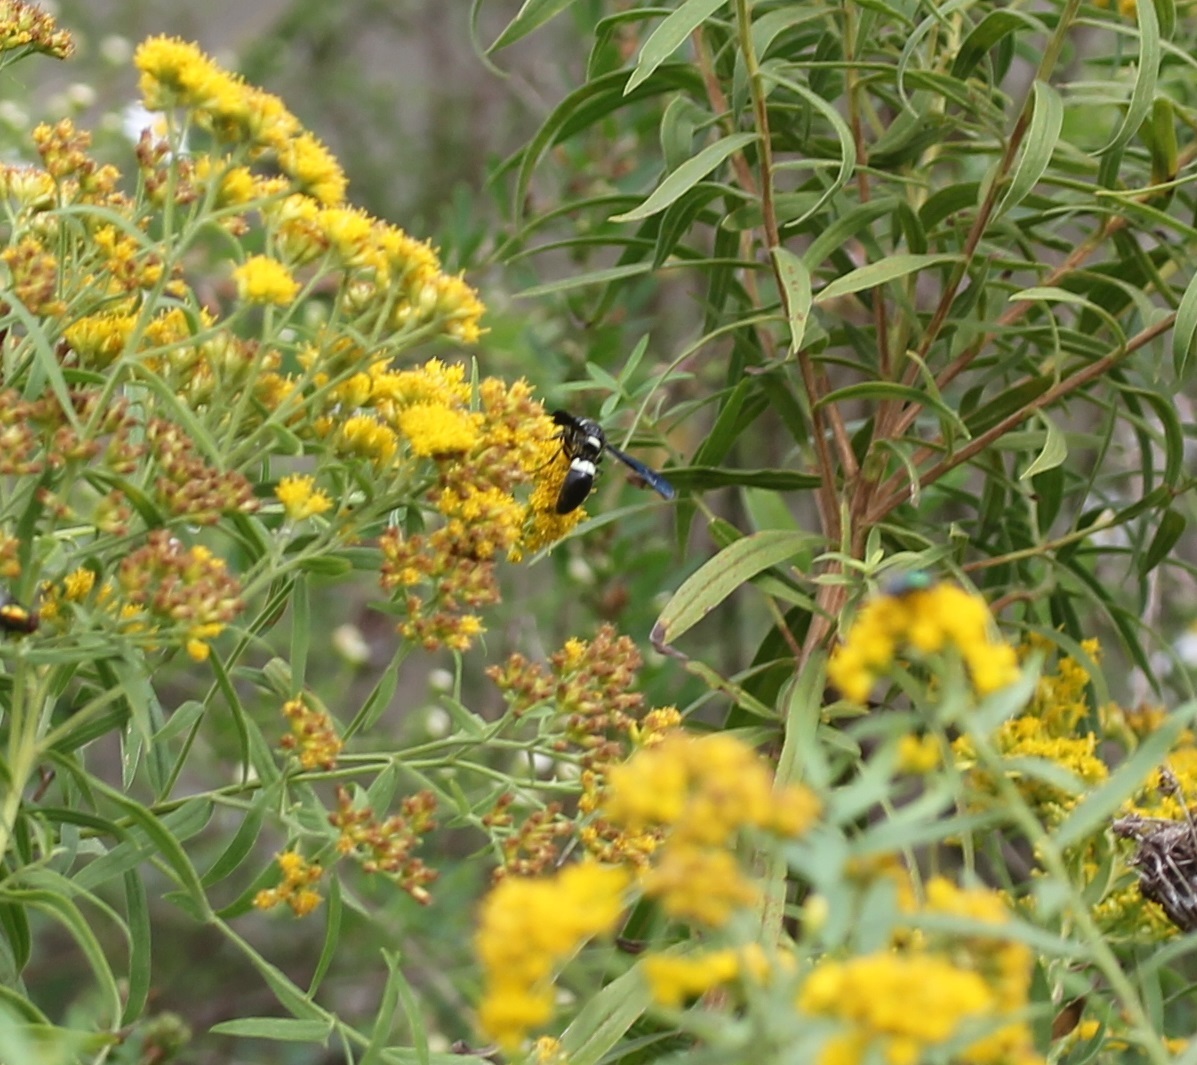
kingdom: Animalia
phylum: Arthropoda
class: Insecta
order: Hymenoptera
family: Eumenidae
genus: Monobia
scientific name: Monobia quadridens
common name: Four-toothed mason wasp
